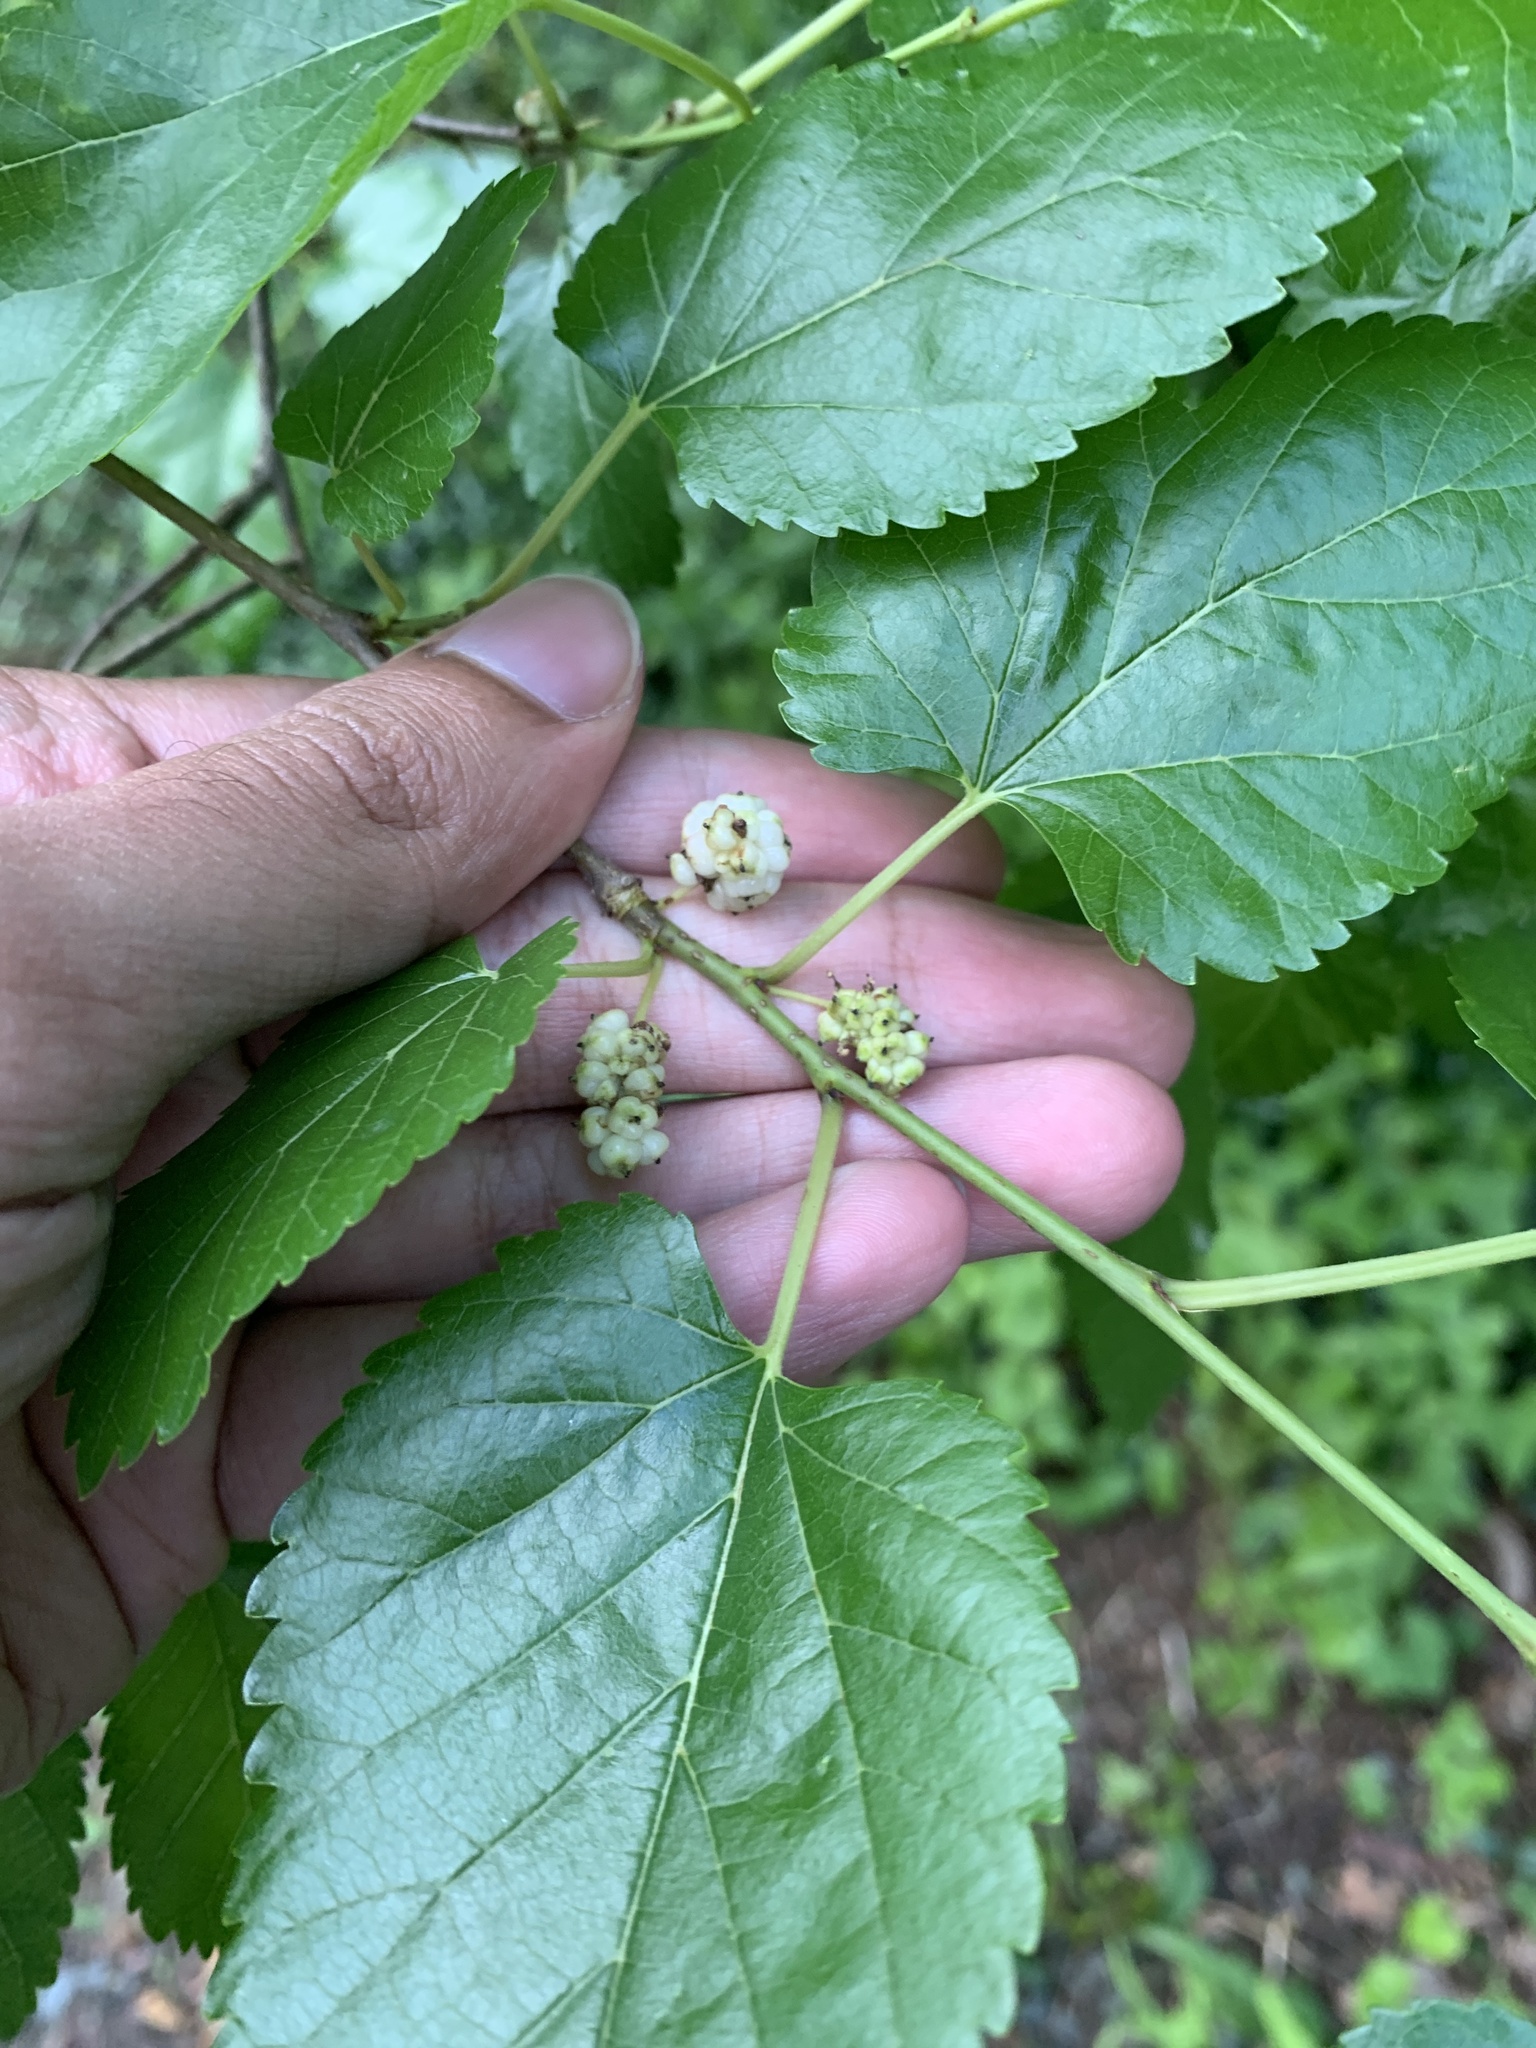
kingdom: Plantae
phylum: Tracheophyta
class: Magnoliopsida
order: Rosales
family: Moraceae
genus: Morus
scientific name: Morus alba
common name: White mulberry
